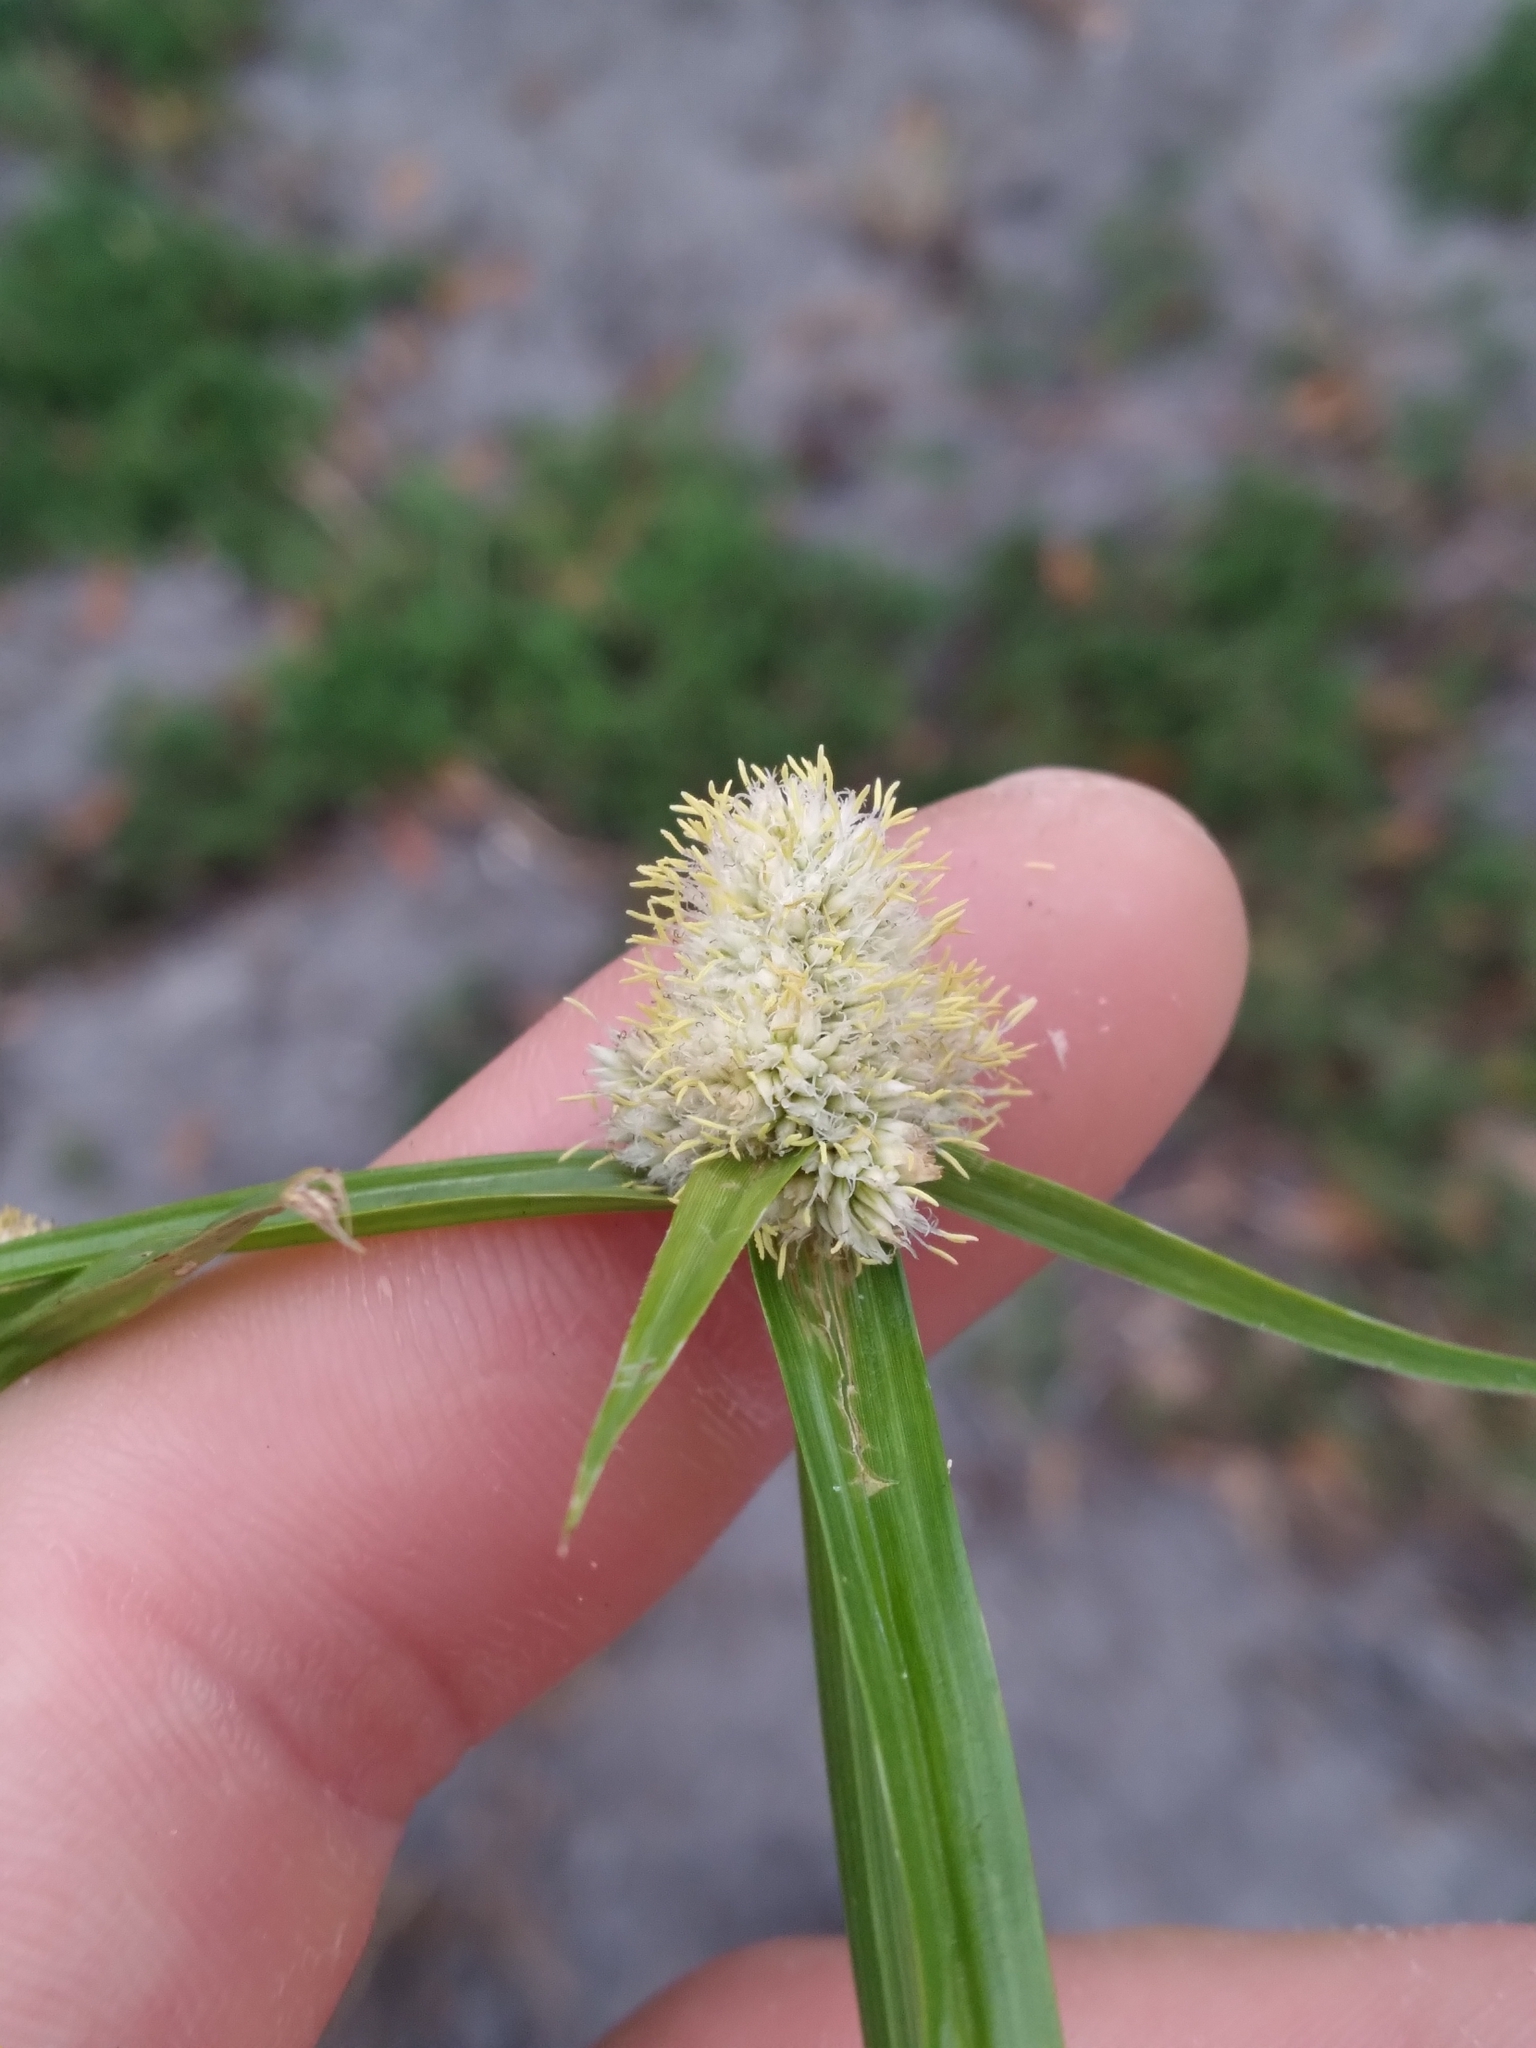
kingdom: Plantae
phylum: Tracheophyta
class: Liliopsida
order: Poales
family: Cyperaceae
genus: Cyperus
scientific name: Cyperus richardii
